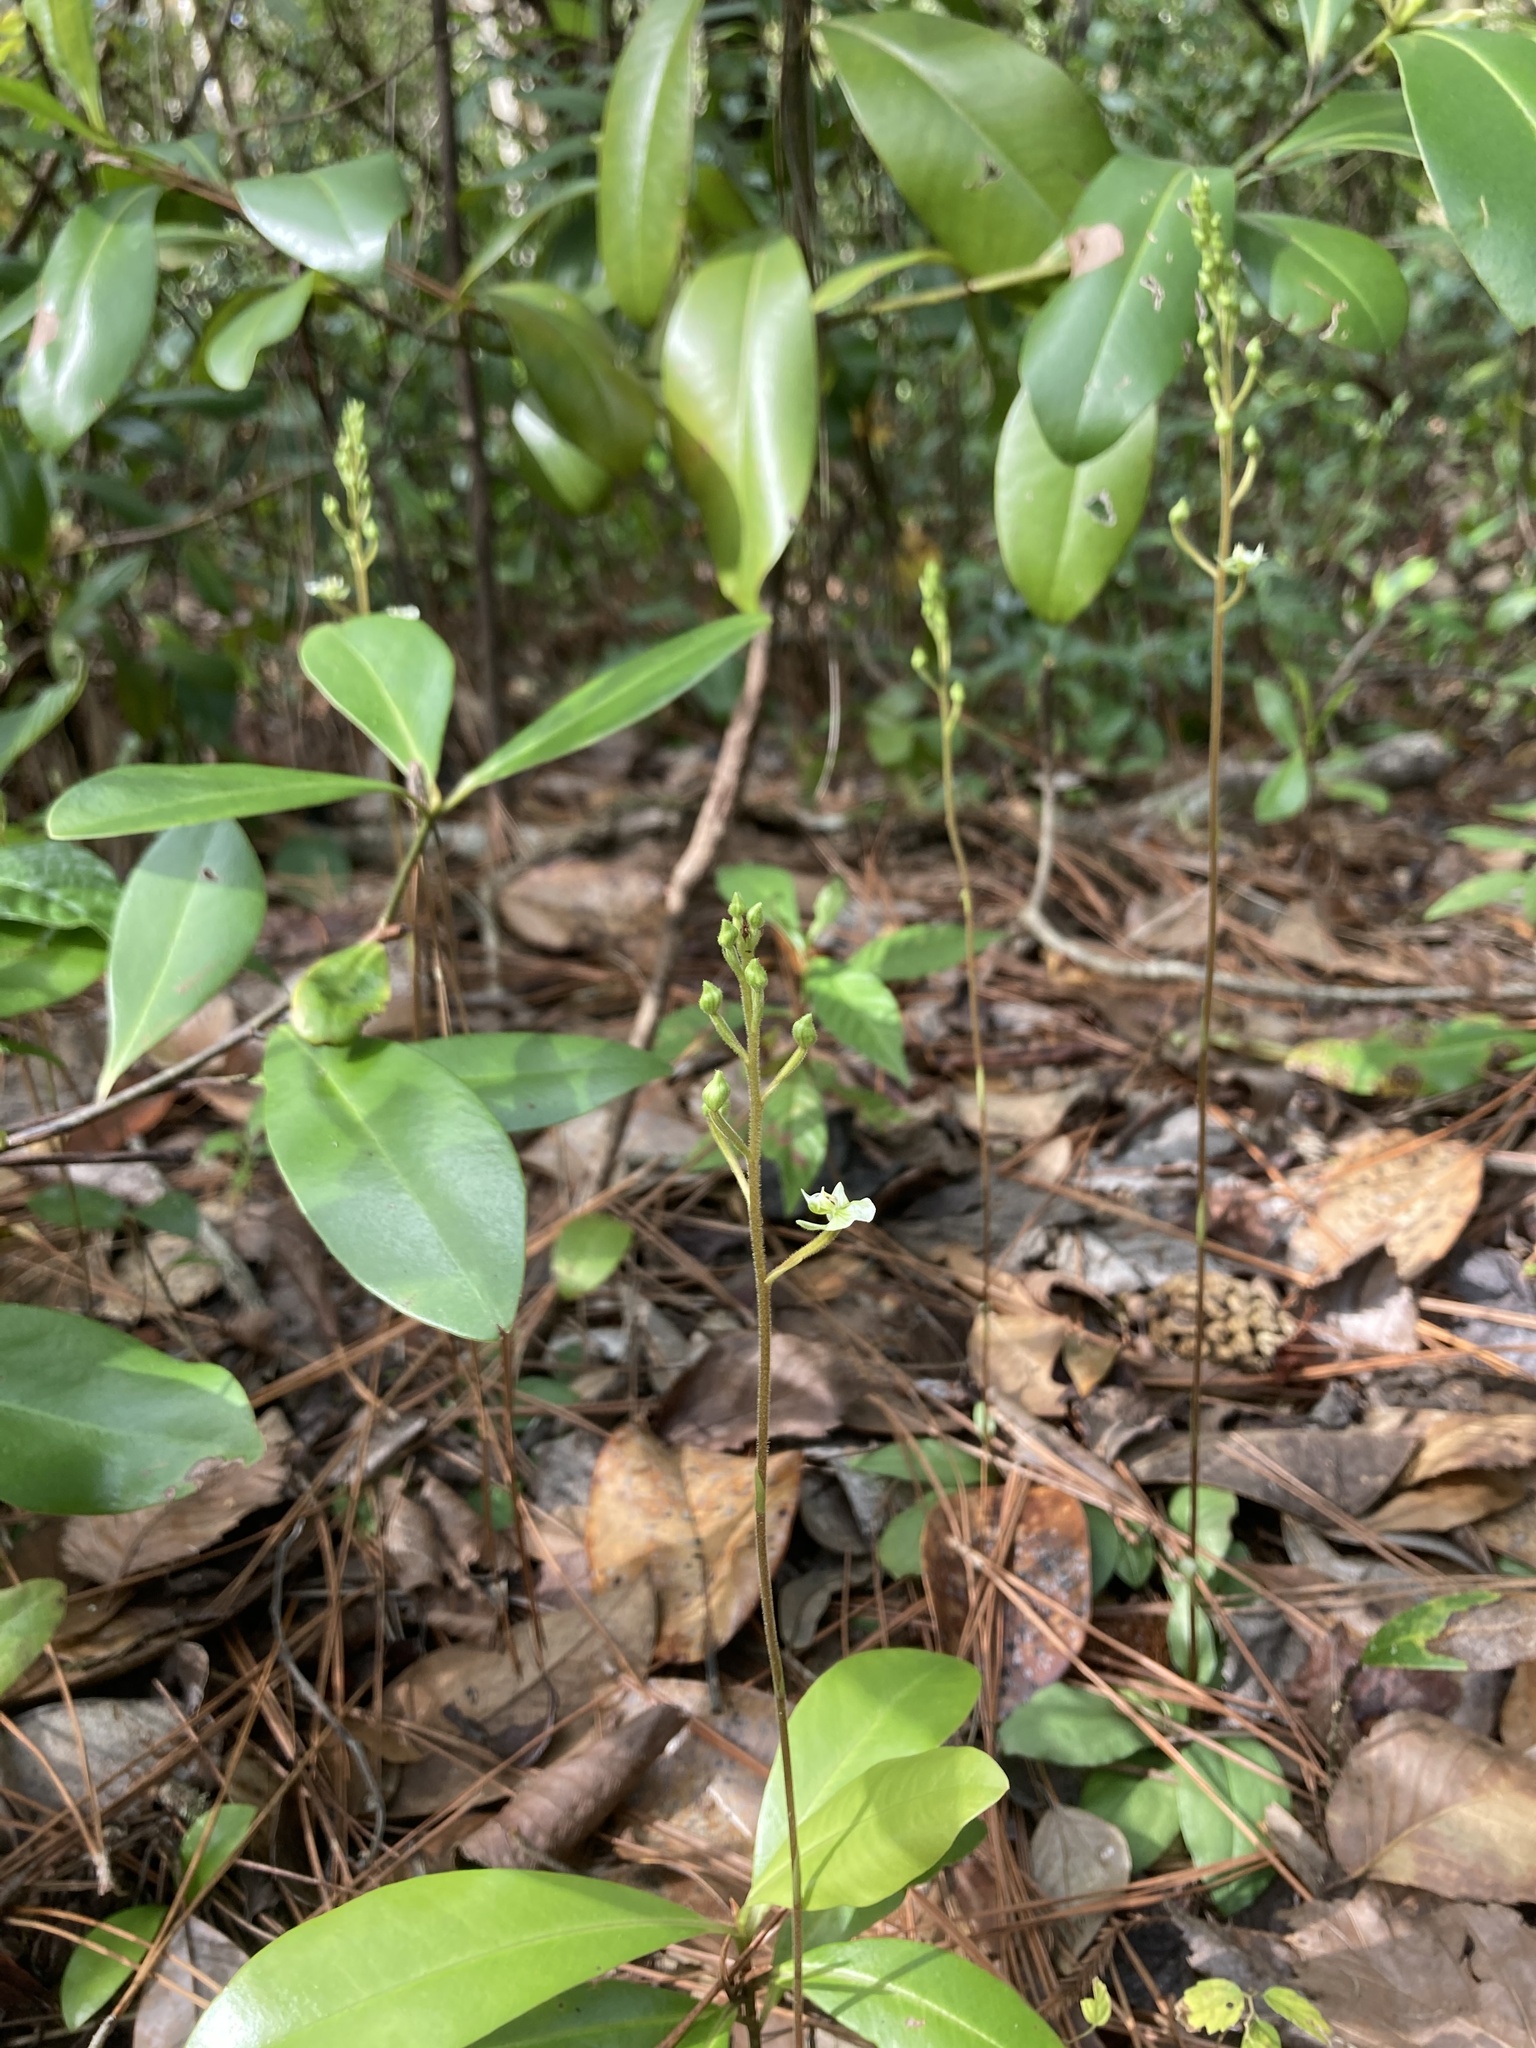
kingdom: Plantae
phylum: Tracheophyta
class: Liliopsida
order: Asparagales
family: Orchidaceae
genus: Ponthieva
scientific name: Ponthieva racemosa
